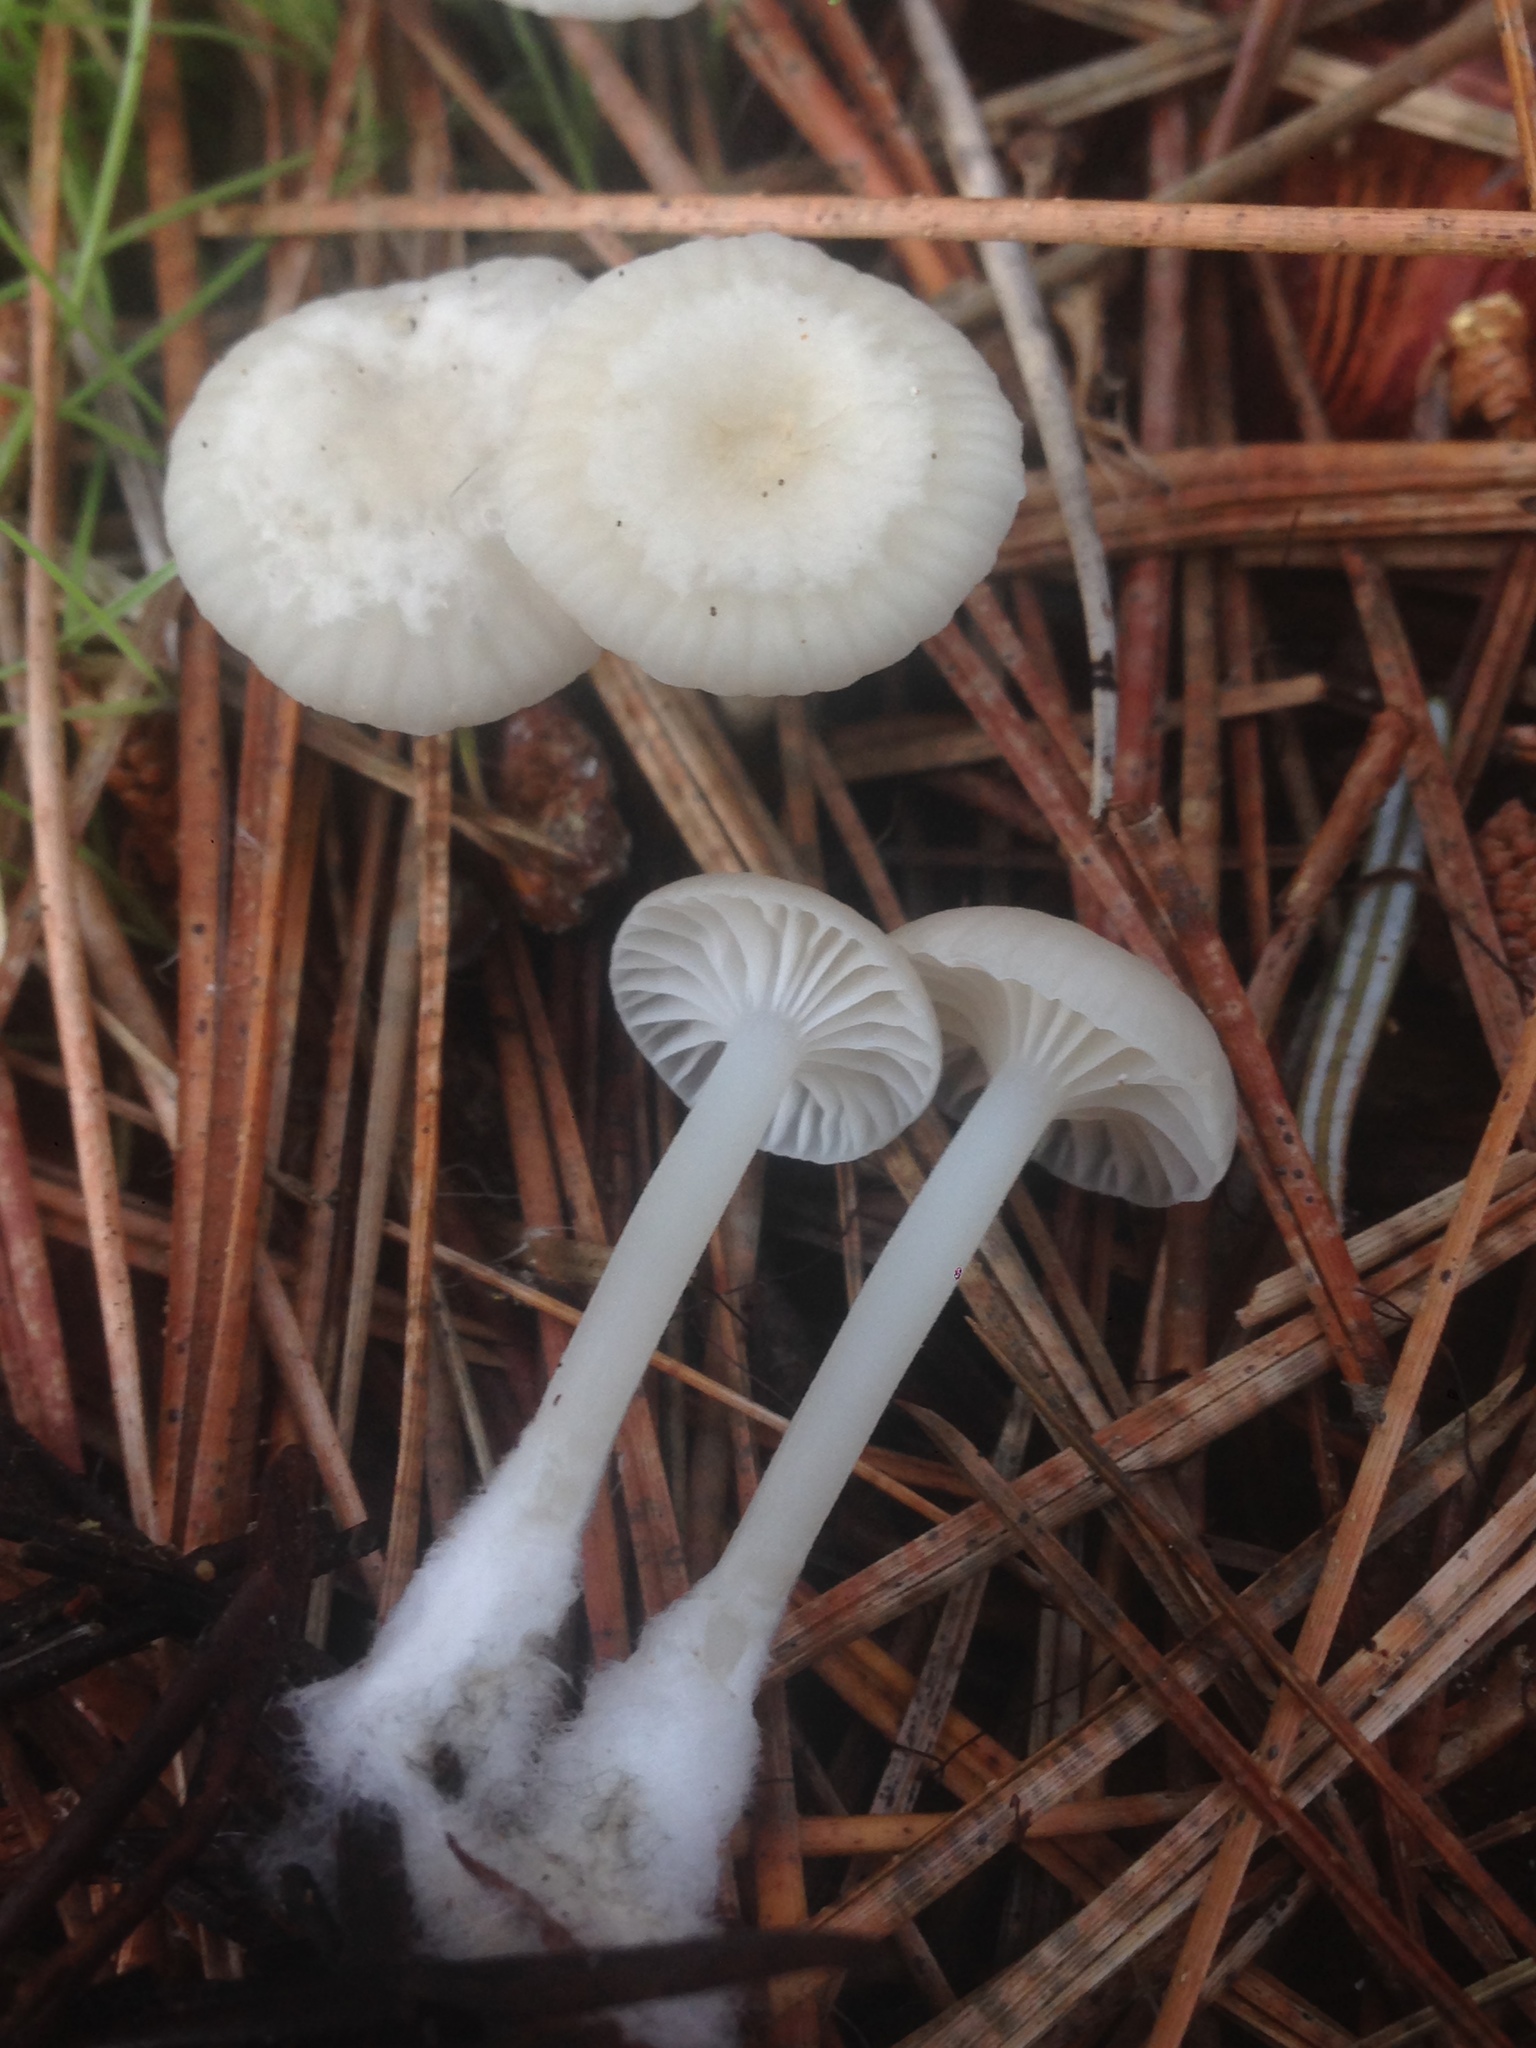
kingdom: Fungi
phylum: Basidiomycota
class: Agaricomycetes
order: Agaricales
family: Marasmiaceae
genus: Marasmius
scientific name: Marasmius calhouniae
